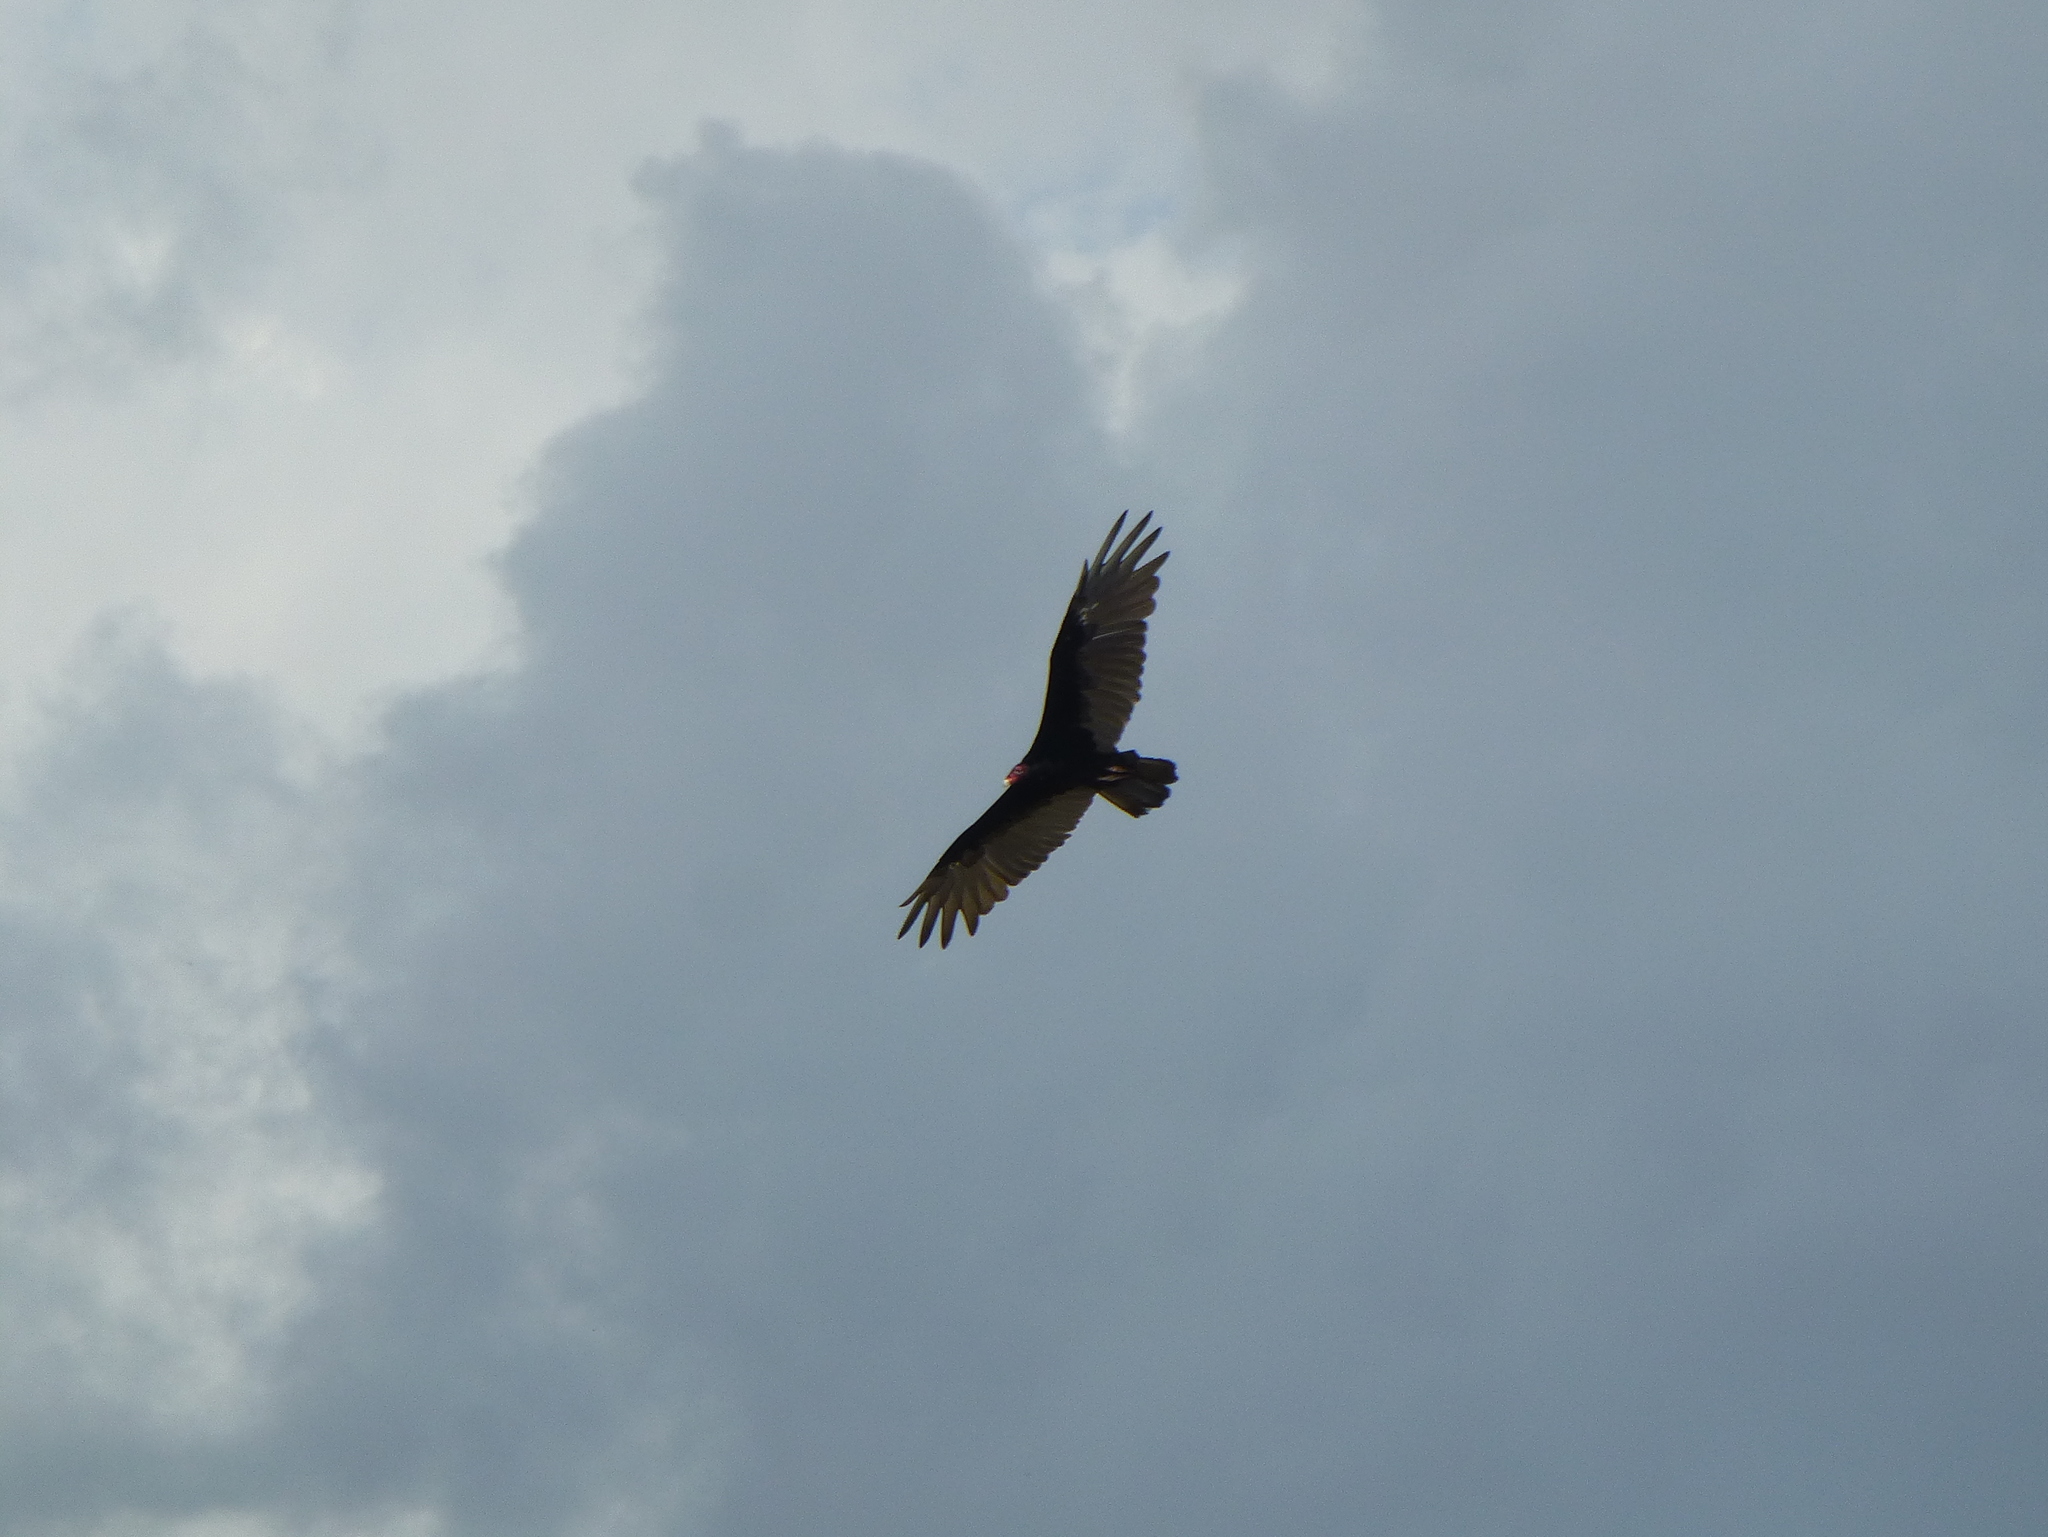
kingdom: Animalia
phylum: Chordata
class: Aves
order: Accipitriformes
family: Cathartidae
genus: Cathartes
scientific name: Cathartes aura
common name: Turkey vulture
